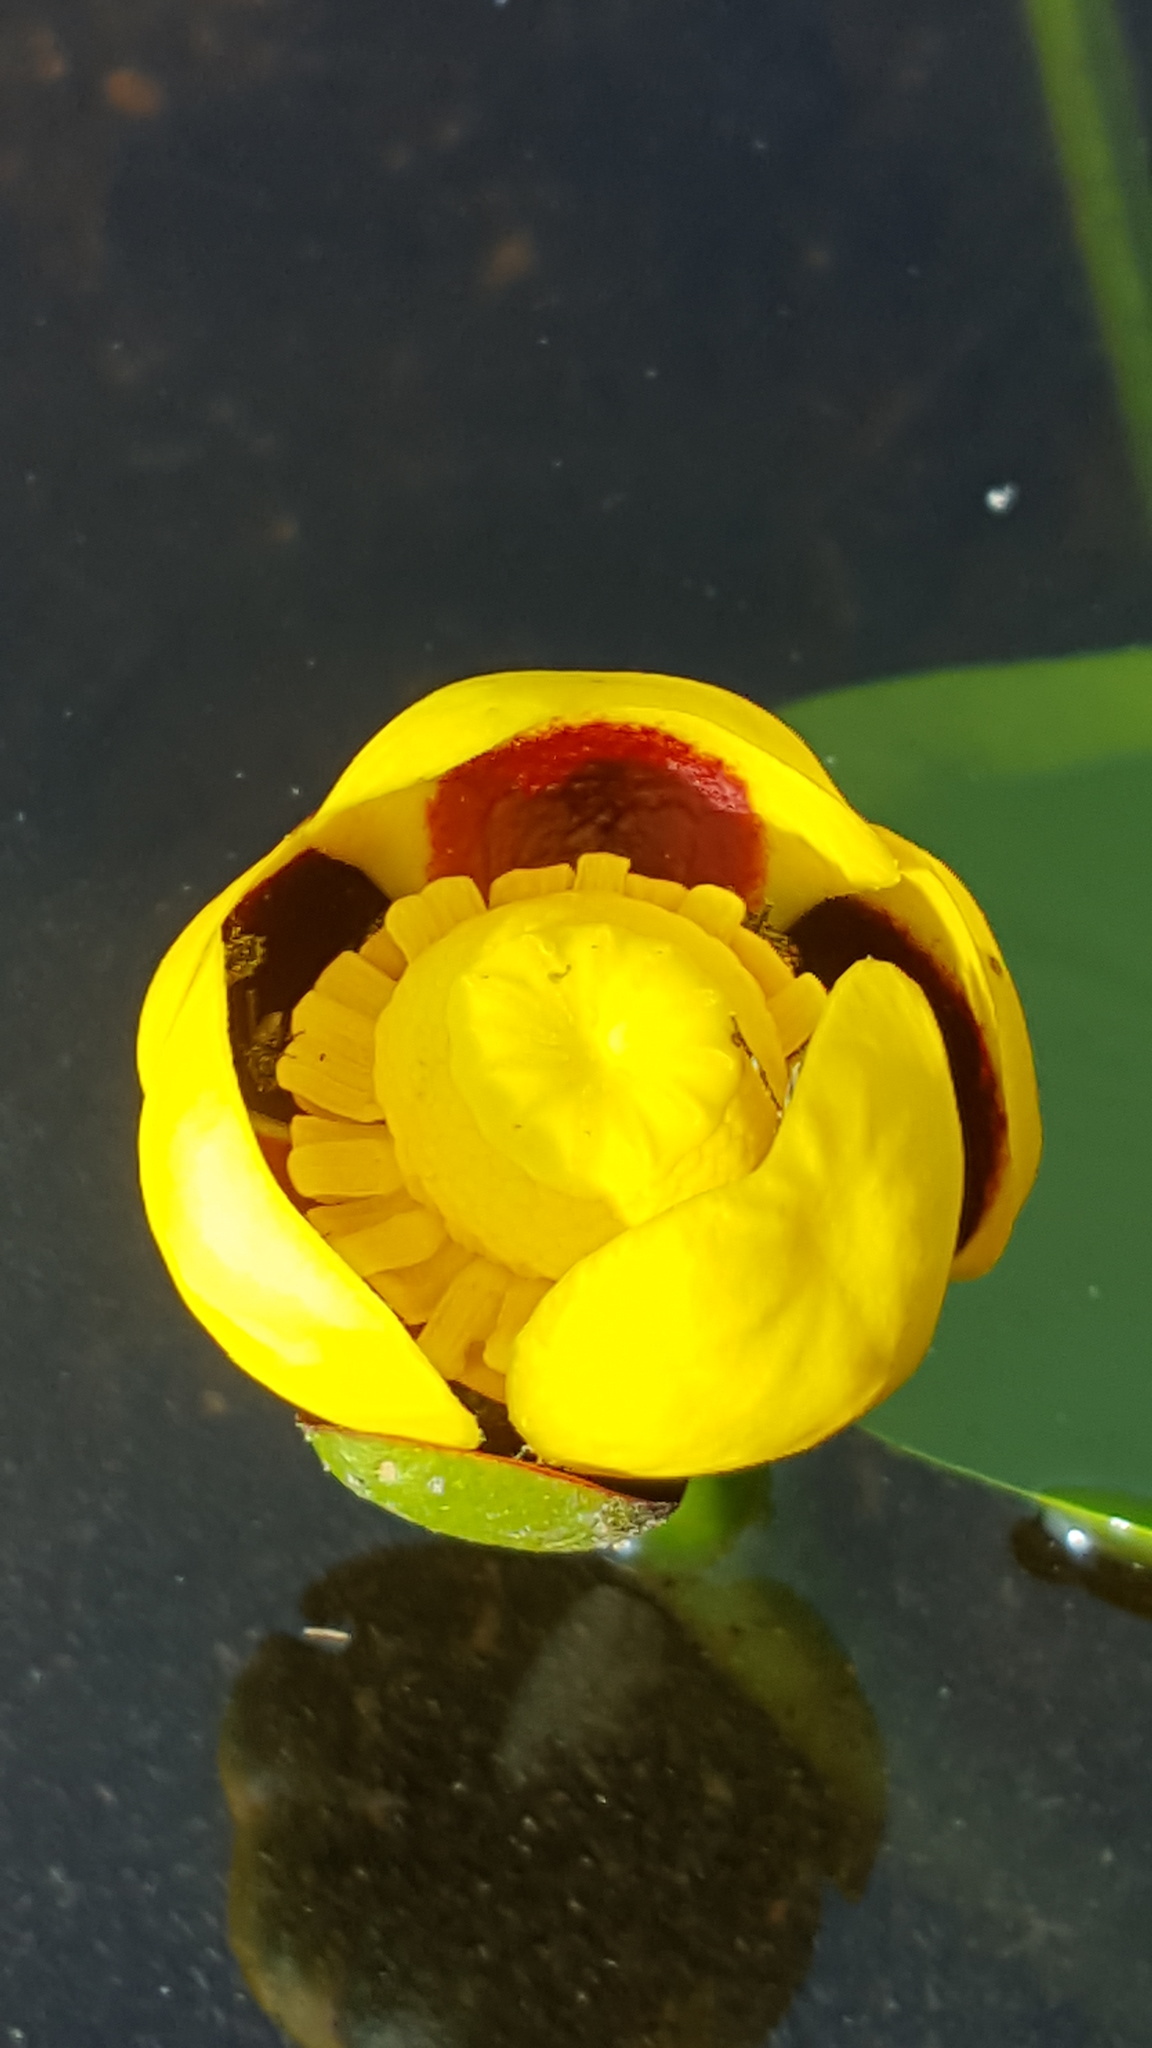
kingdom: Plantae
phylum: Tracheophyta
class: Magnoliopsida
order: Nymphaeales
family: Nymphaeaceae
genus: Nuphar
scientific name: Nuphar variegata
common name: Beaver-root
